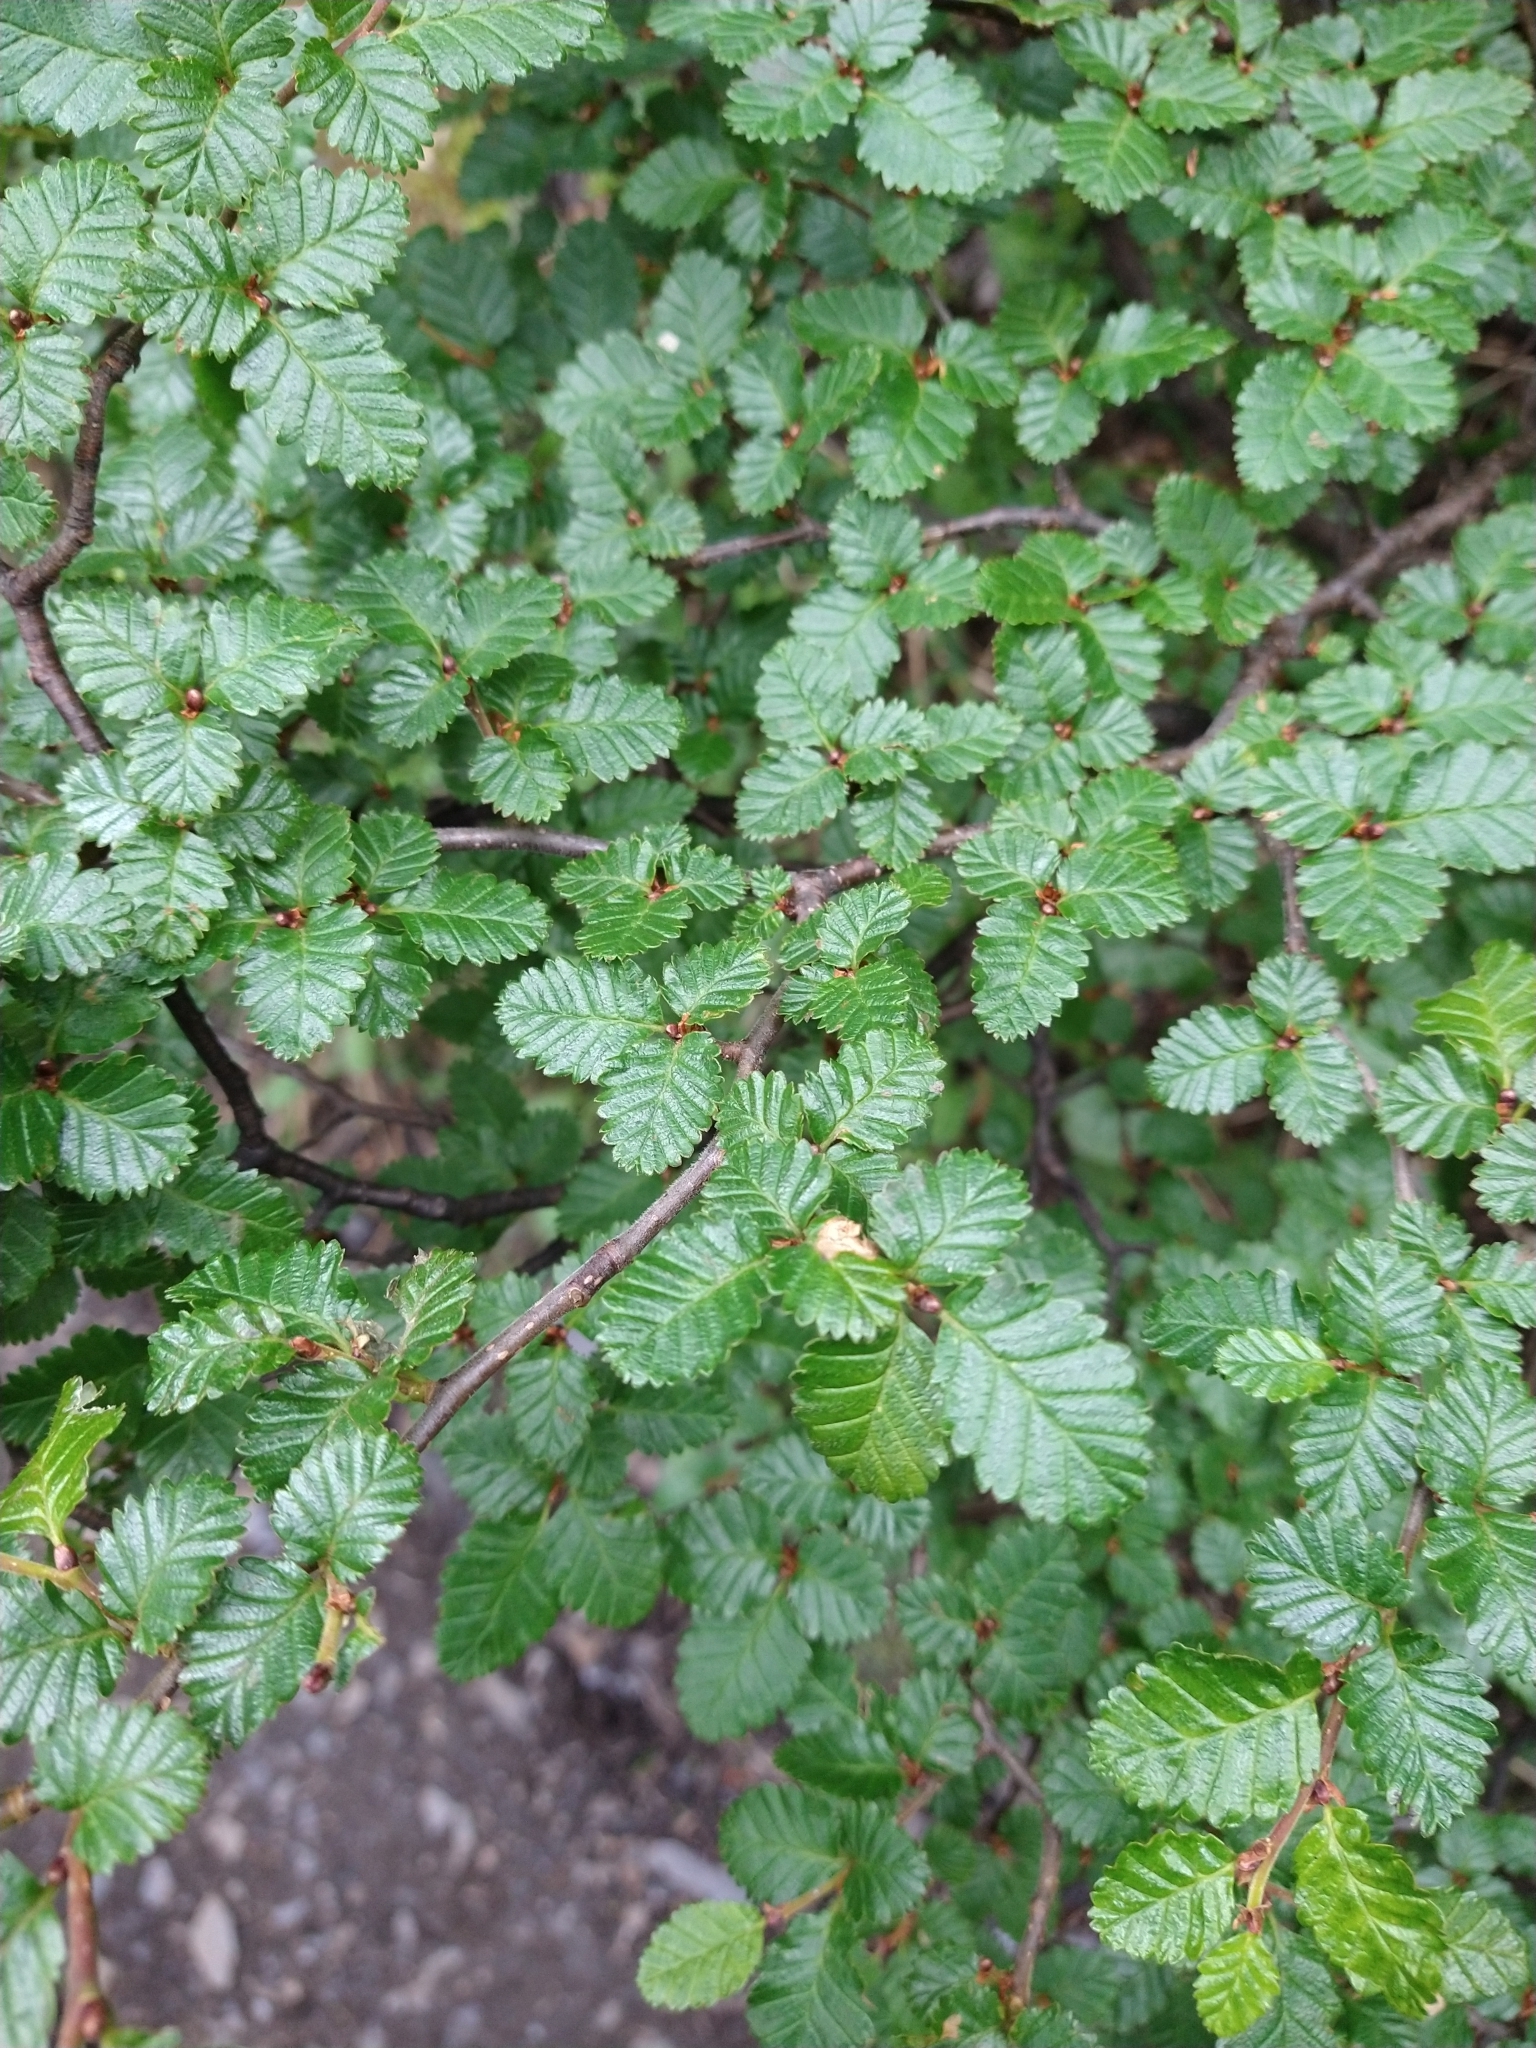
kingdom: Plantae
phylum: Tracheophyta
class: Magnoliopsida
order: Fagales
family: Nothofagaceae
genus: Nothofagus
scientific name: Nothofagus pumilio
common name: Lenga beech
